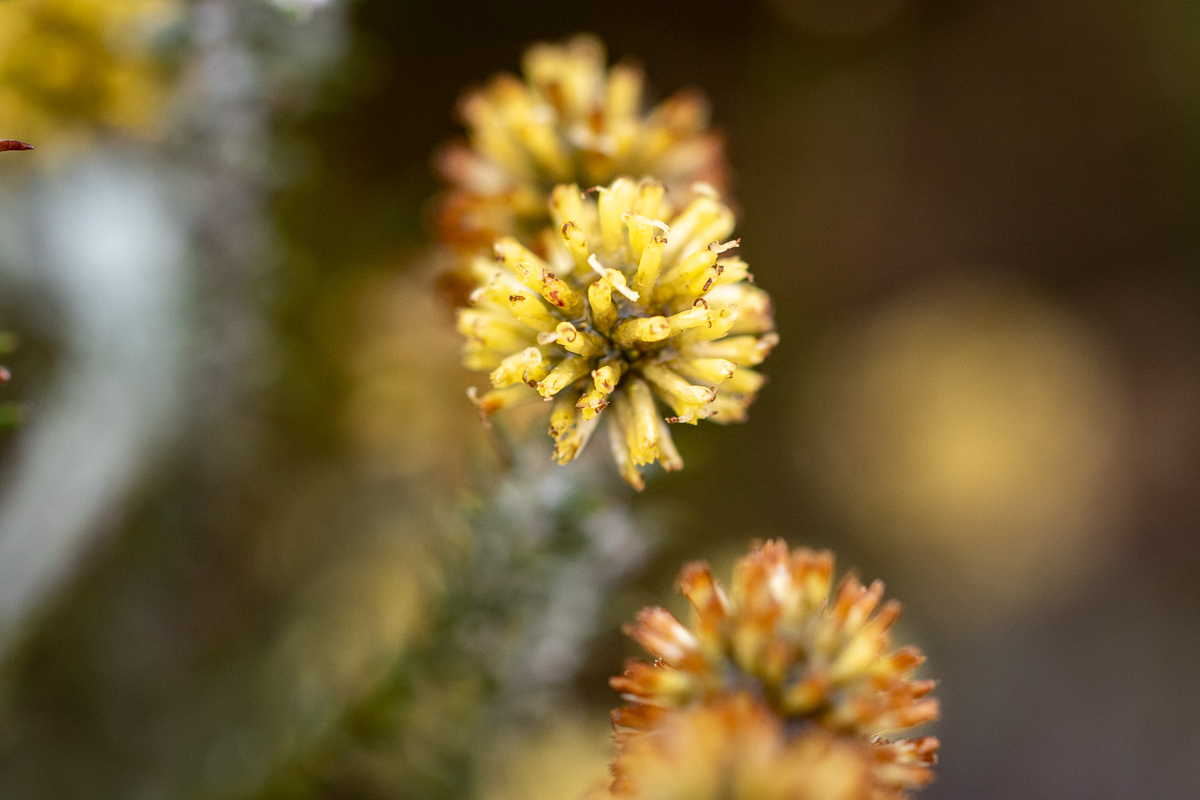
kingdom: Plantae
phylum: Tracheophyta
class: Magnoliopsida
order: Asterales
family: Asteraceae
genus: Seriphium
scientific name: Seriphium spirale
